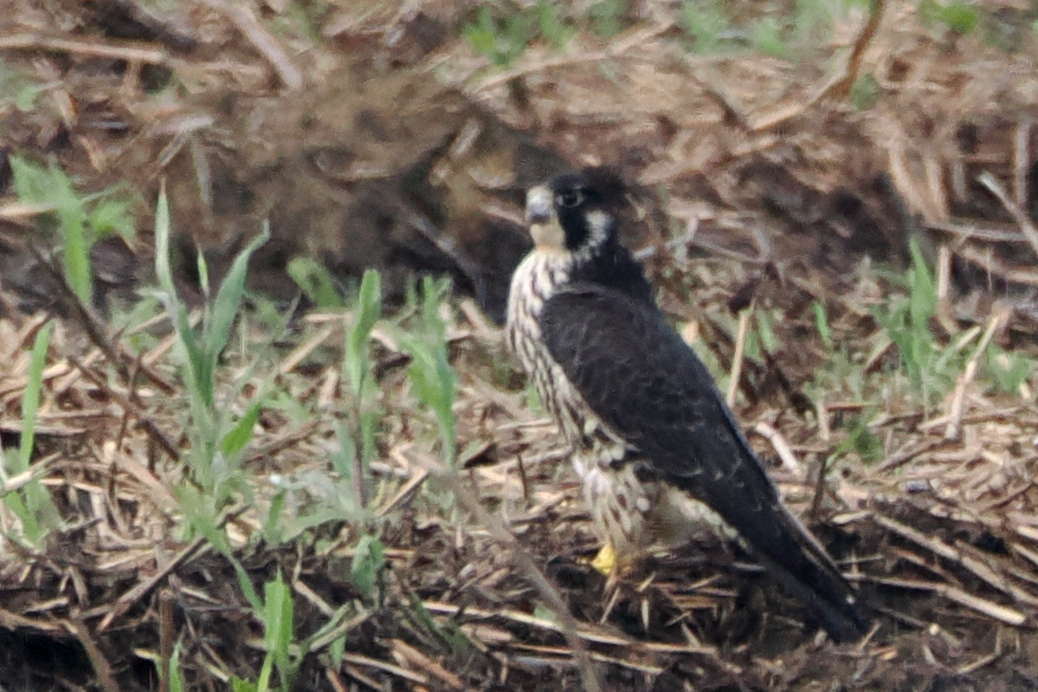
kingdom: Animalia
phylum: Chordata
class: Aves
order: Falconiformes
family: Falconidae
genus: Falco
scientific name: Falco peregrinus
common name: Peregrine falcon
